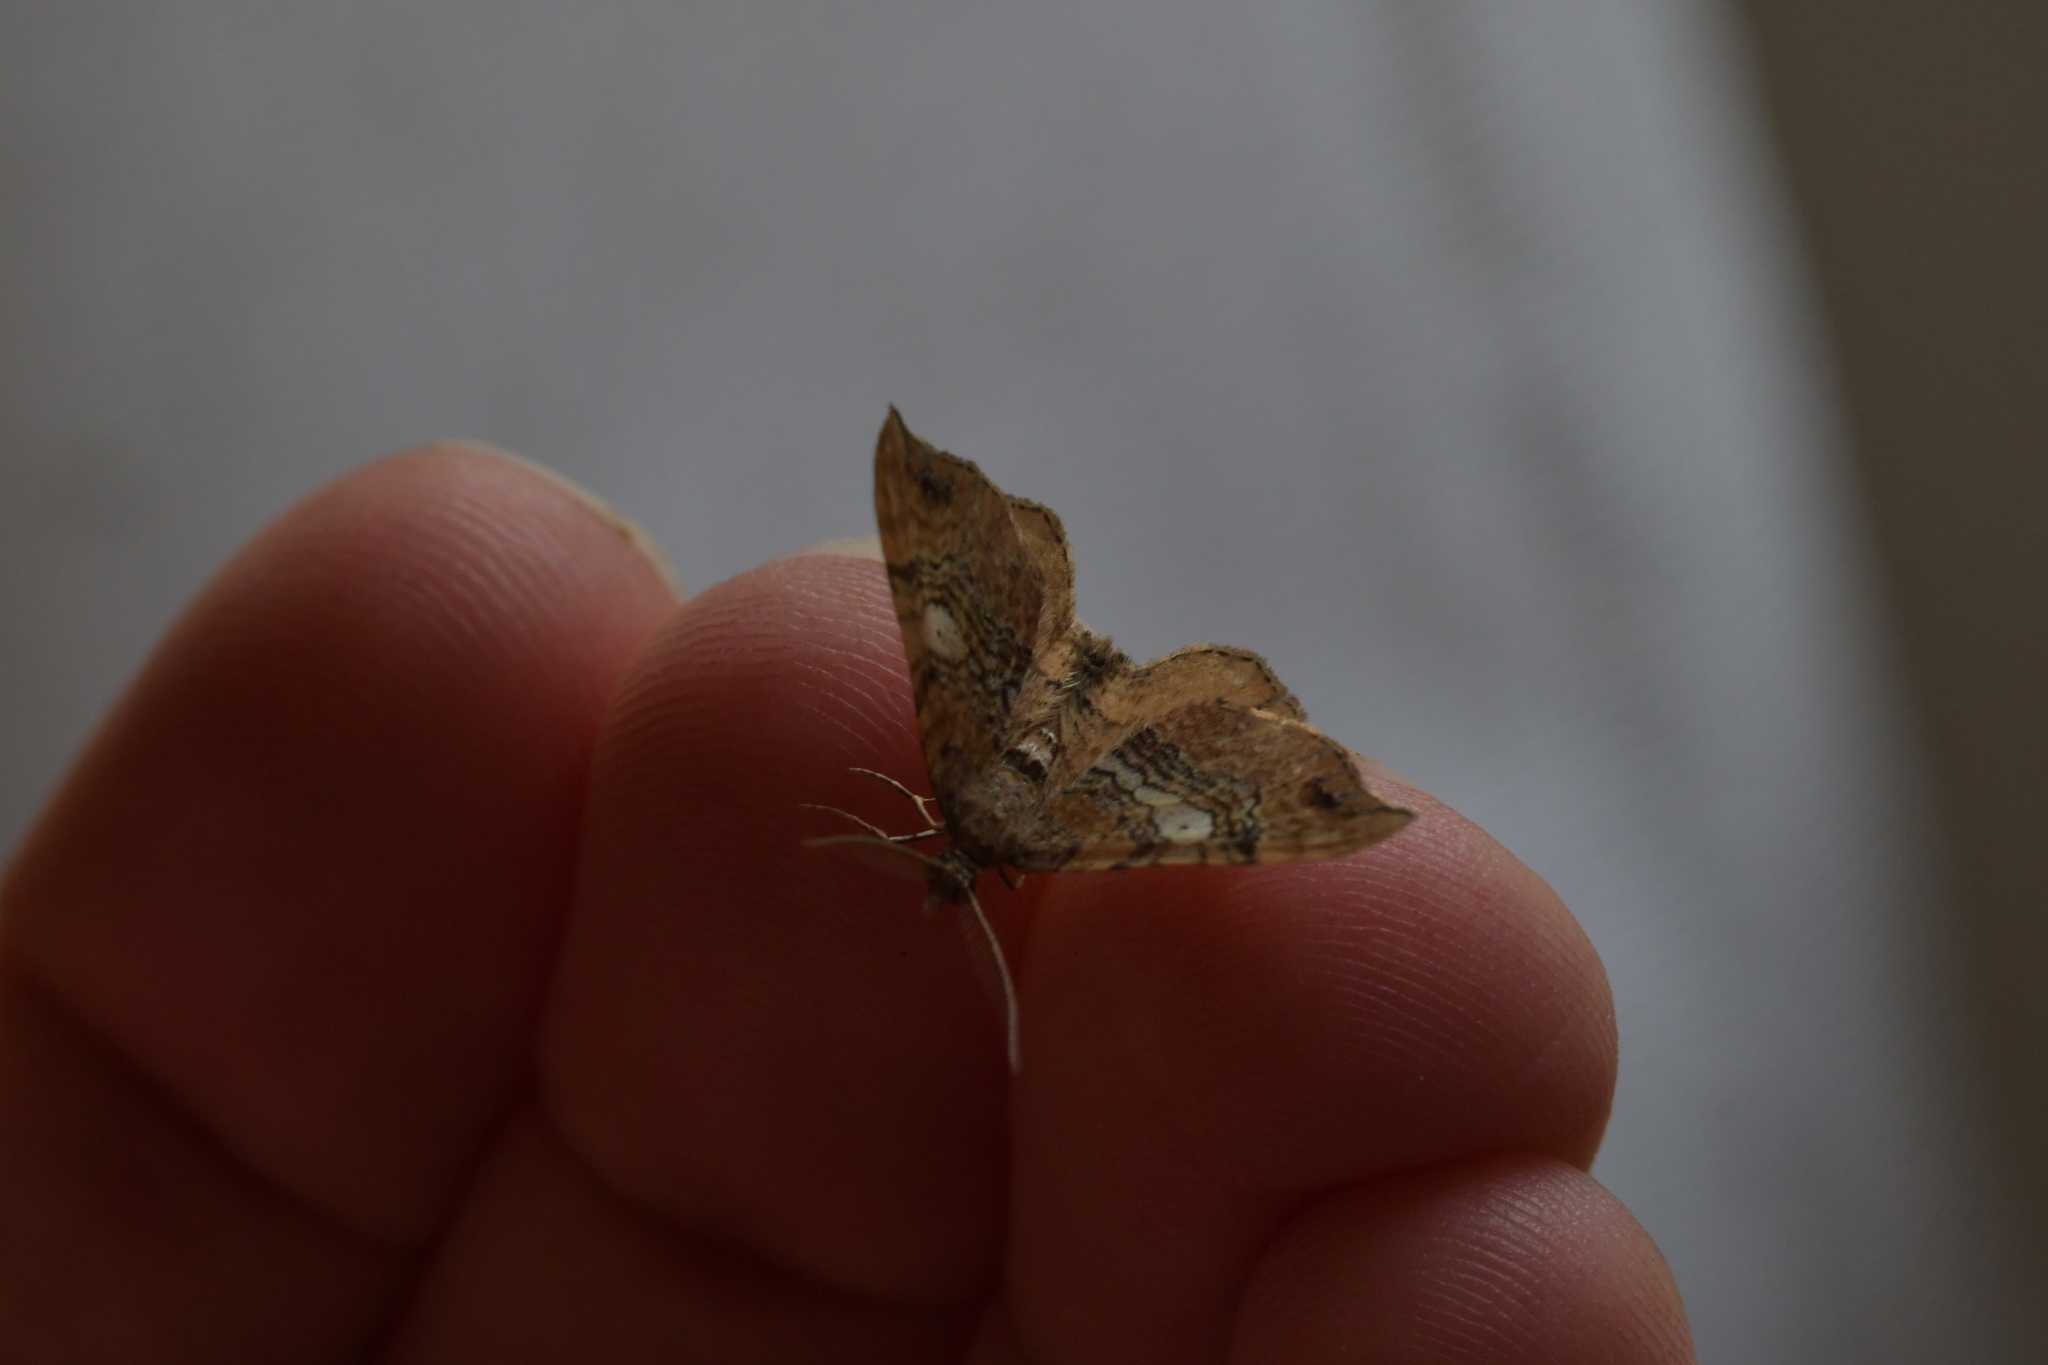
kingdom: Animalia
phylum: Arthropoda
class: Insecta
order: Lepidoptera
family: Geometridae
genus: Homodotis
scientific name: Homodotis megaspilata
